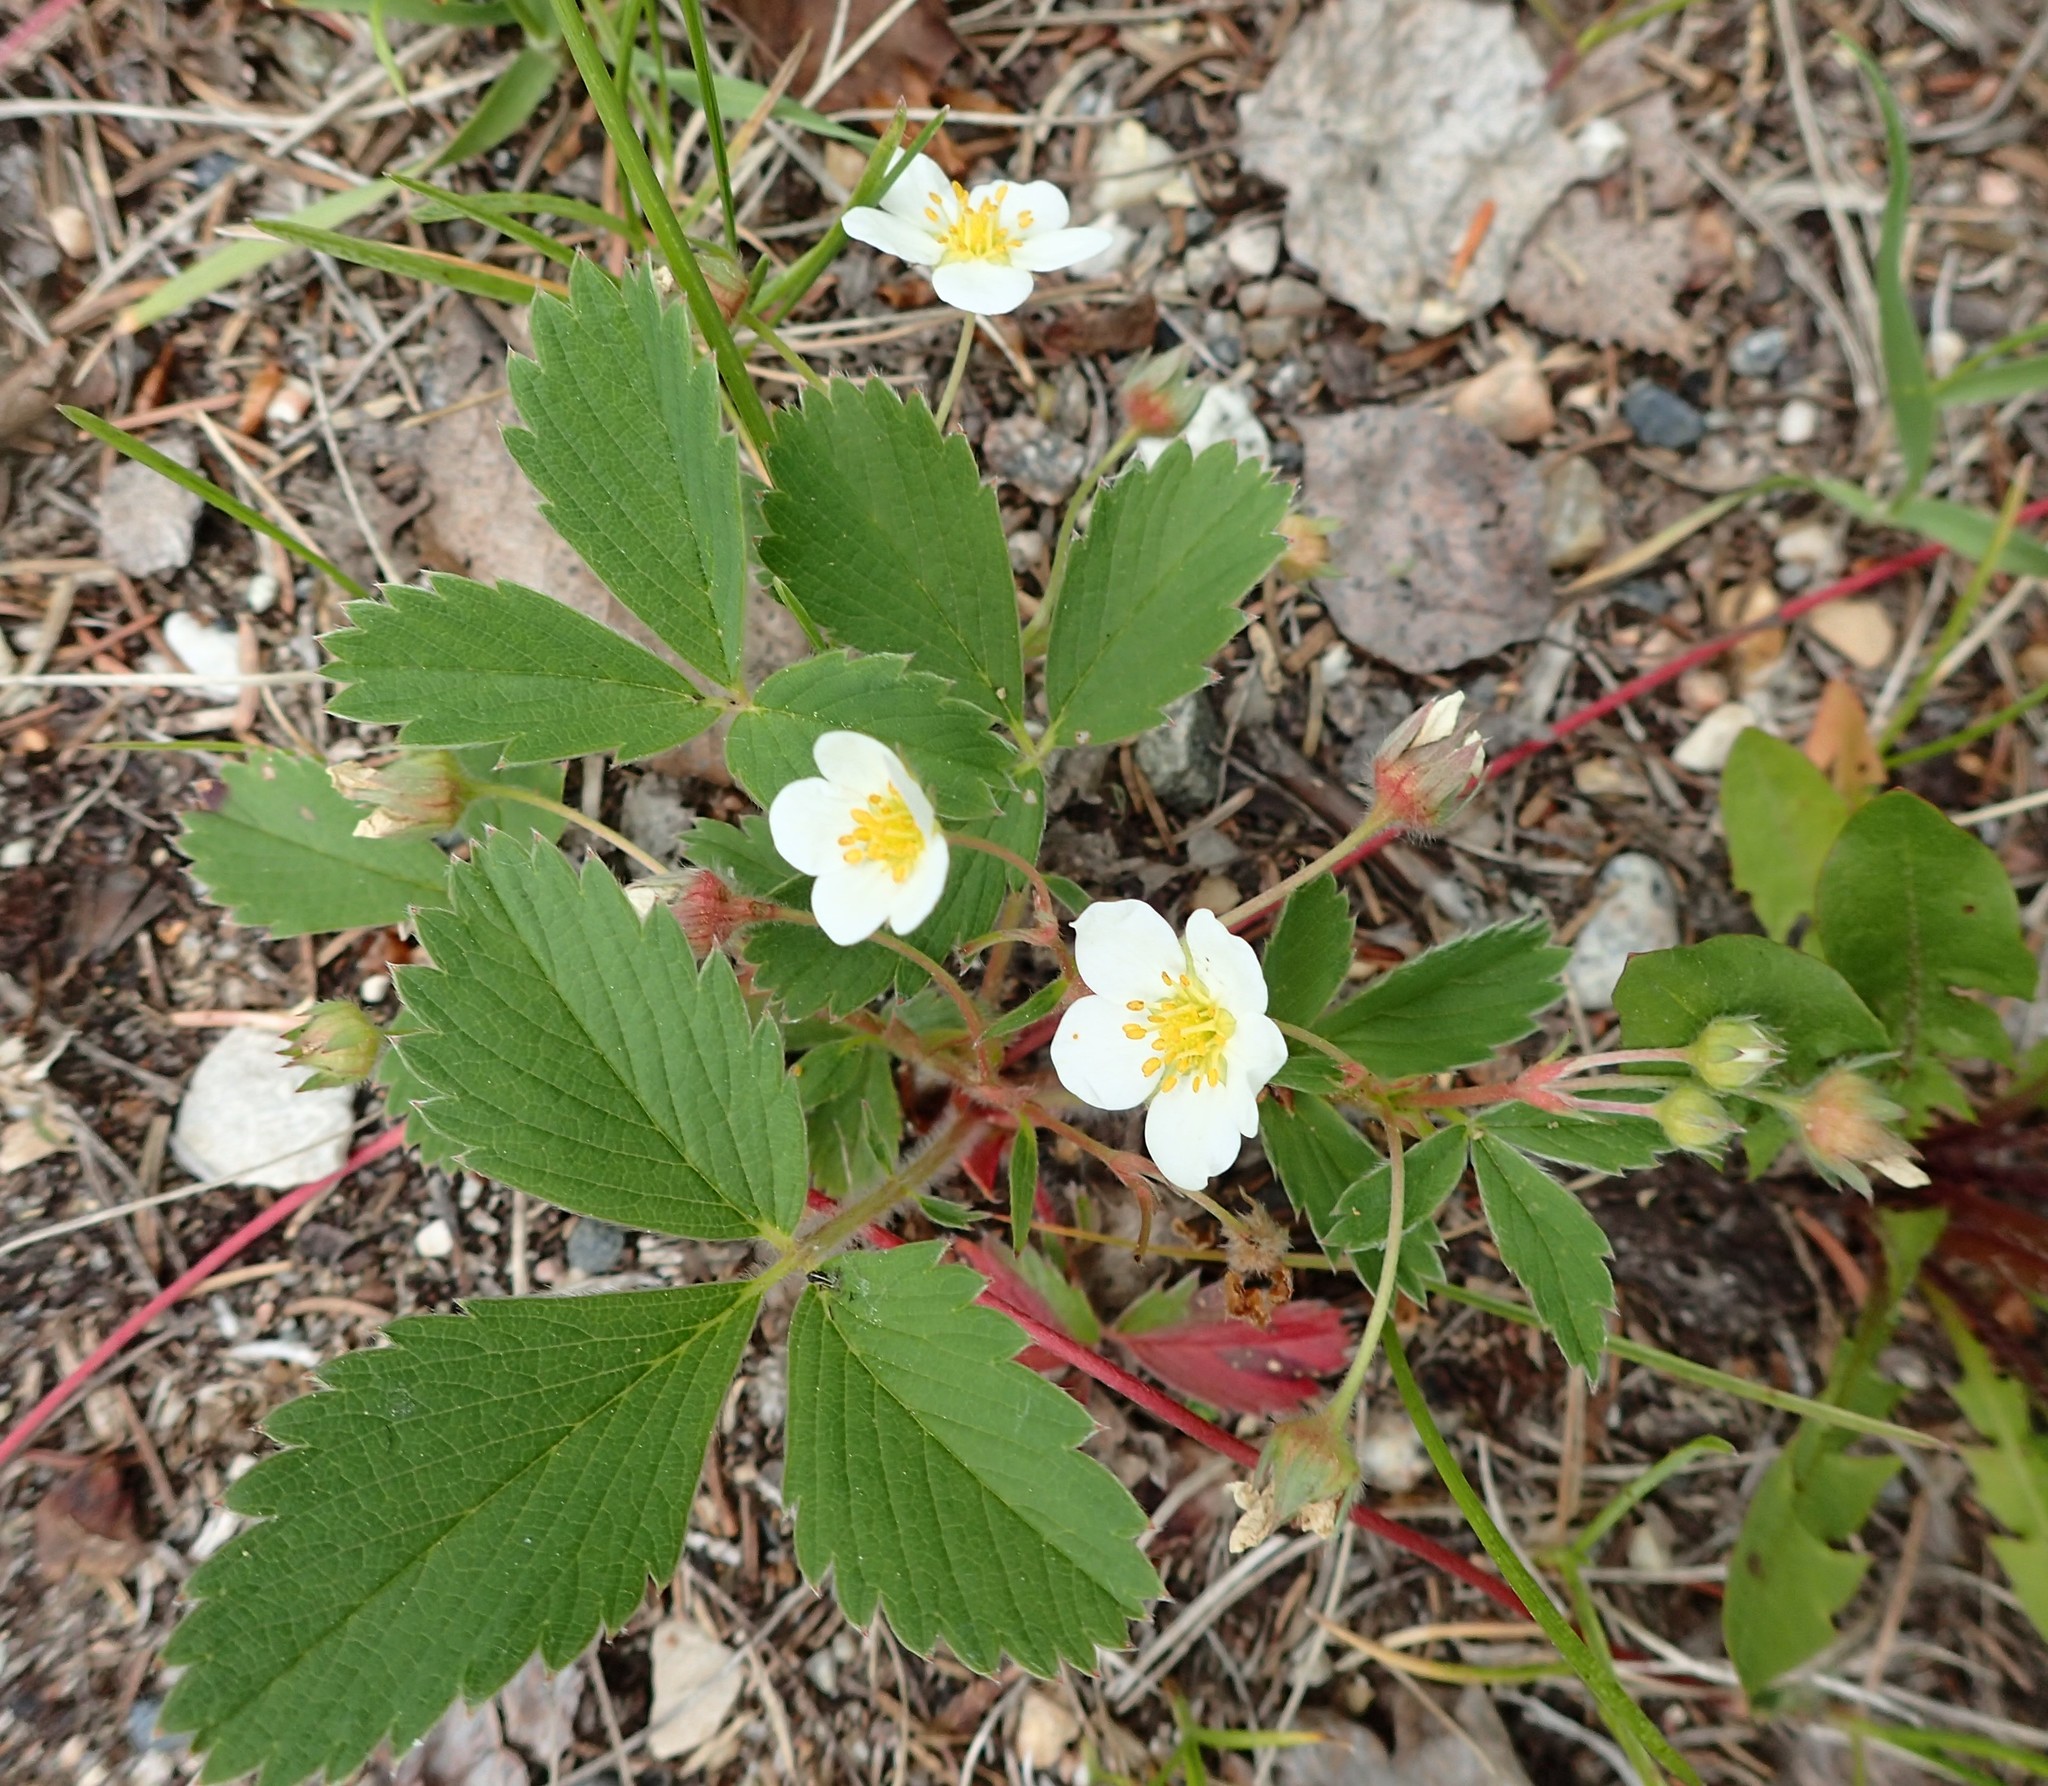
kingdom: Plantae
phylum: Tracheophyta
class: Magnoliopsida
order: Rosales
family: Rosaceae
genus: Fragaria
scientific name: Fragaria virginiana
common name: Thickleaved wild strawberry
